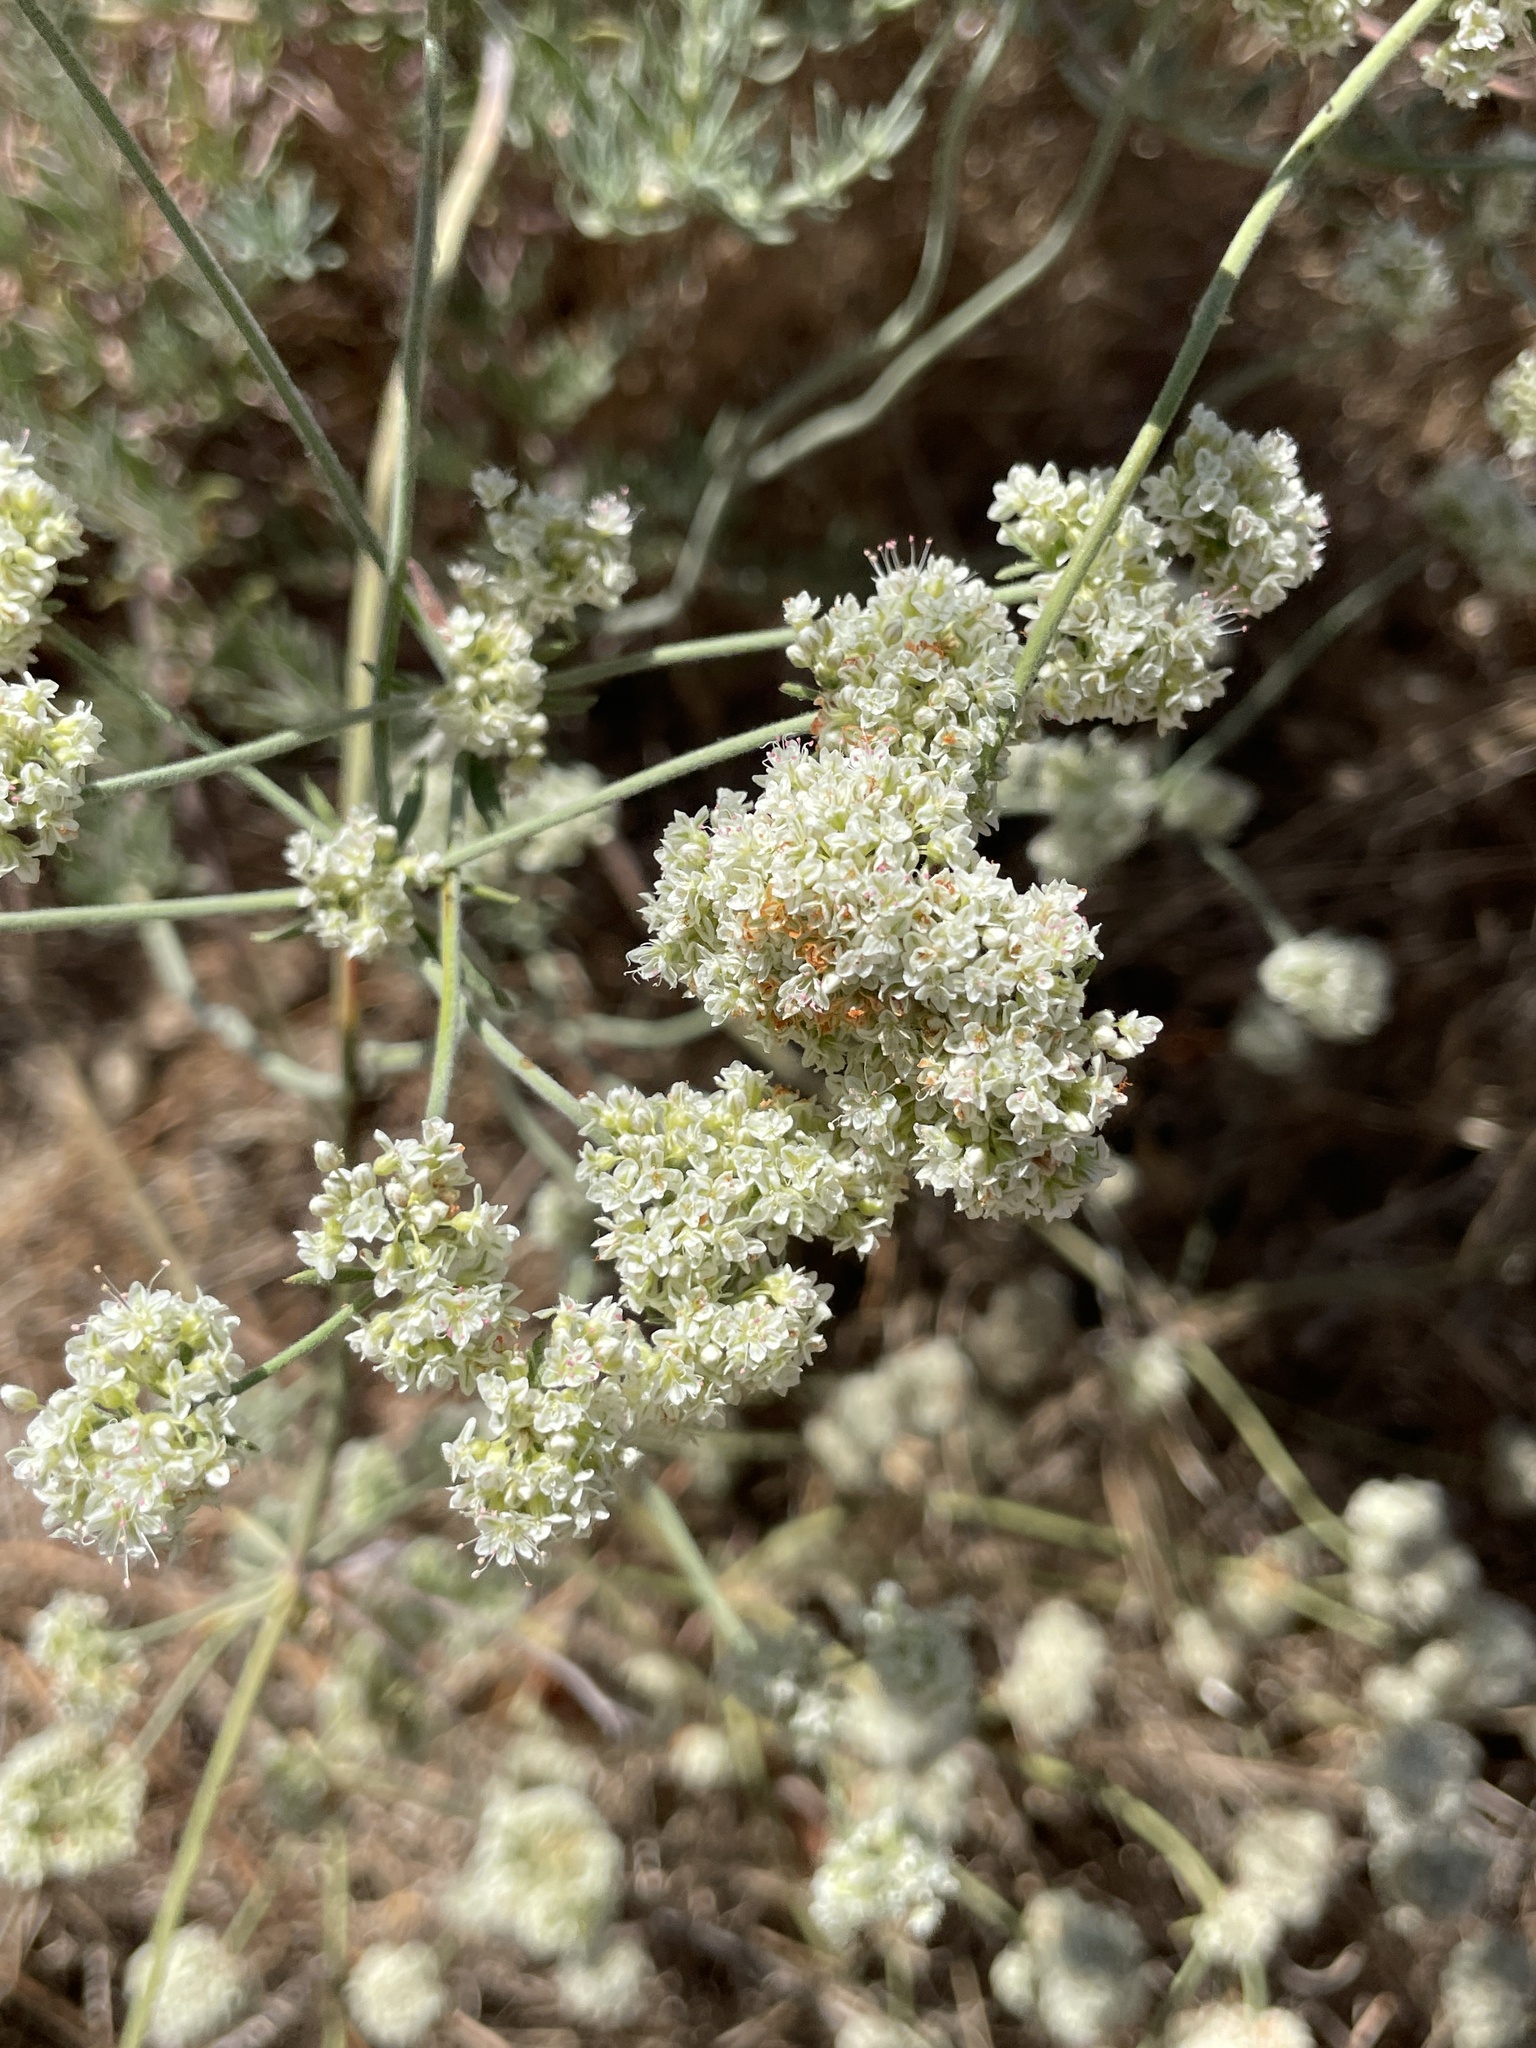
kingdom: Plantae
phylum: Tracheophyta
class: Magnoliopsida
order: Caryophyllales
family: Polygonaceae
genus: Eriogonum
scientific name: Eriogonum fasciculatum
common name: California wild buckwheat
